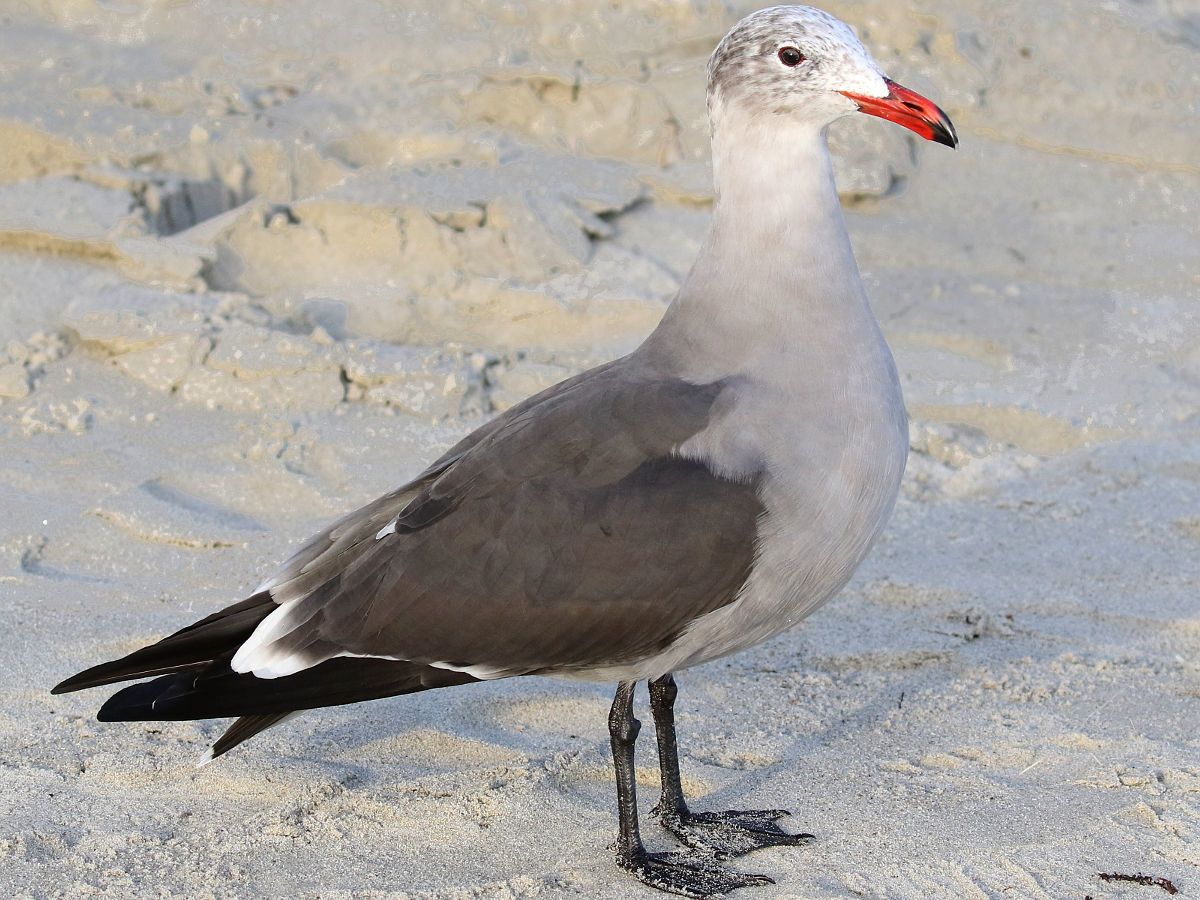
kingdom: Animalia
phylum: Chordata
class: Aves
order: Charadriiformes
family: Laridae
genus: Larus
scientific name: Larus heermanni
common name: Heermann's gull
